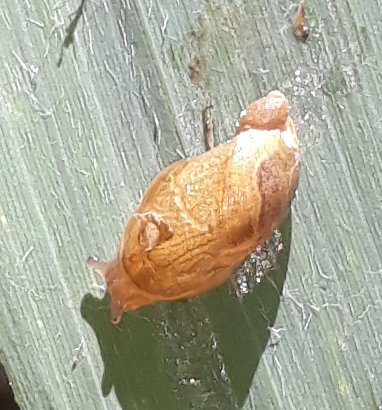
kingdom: Animalia
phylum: Mollusca
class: Gastropoda
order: Stylommatophora
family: Succineidae
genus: Oxyloma
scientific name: Oxyloma elegans
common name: Pfeiffer's amber snail
